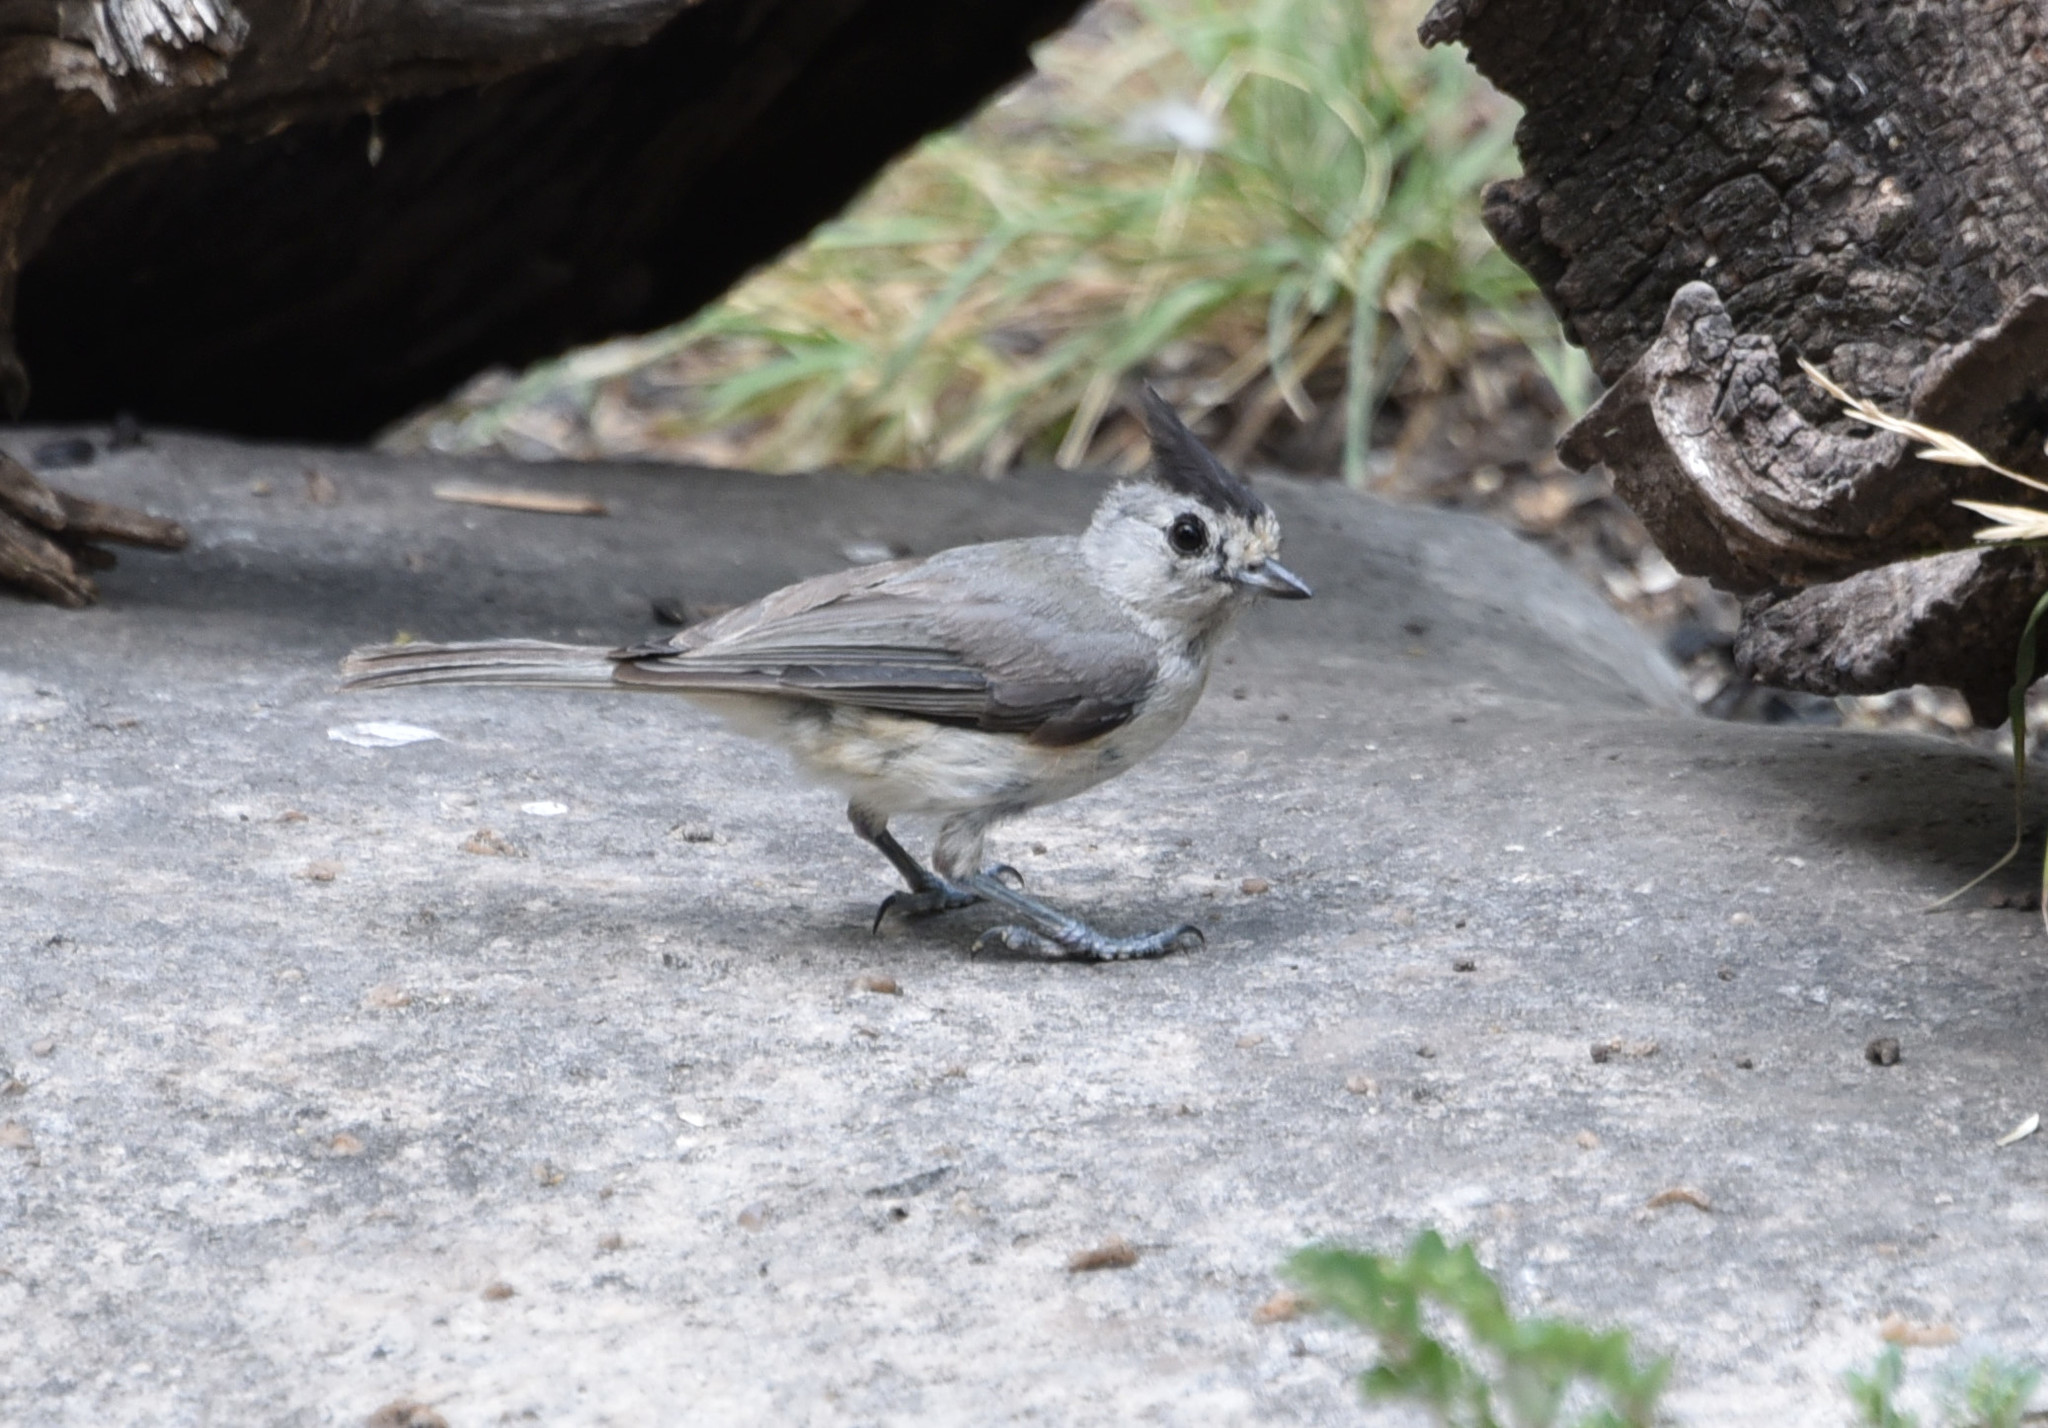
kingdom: Animalia
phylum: Chordata
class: Aves
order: Passeriformes
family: Paridae
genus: Baeolophus
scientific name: Baeolophus atricristatus
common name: Black-crested titmouse
